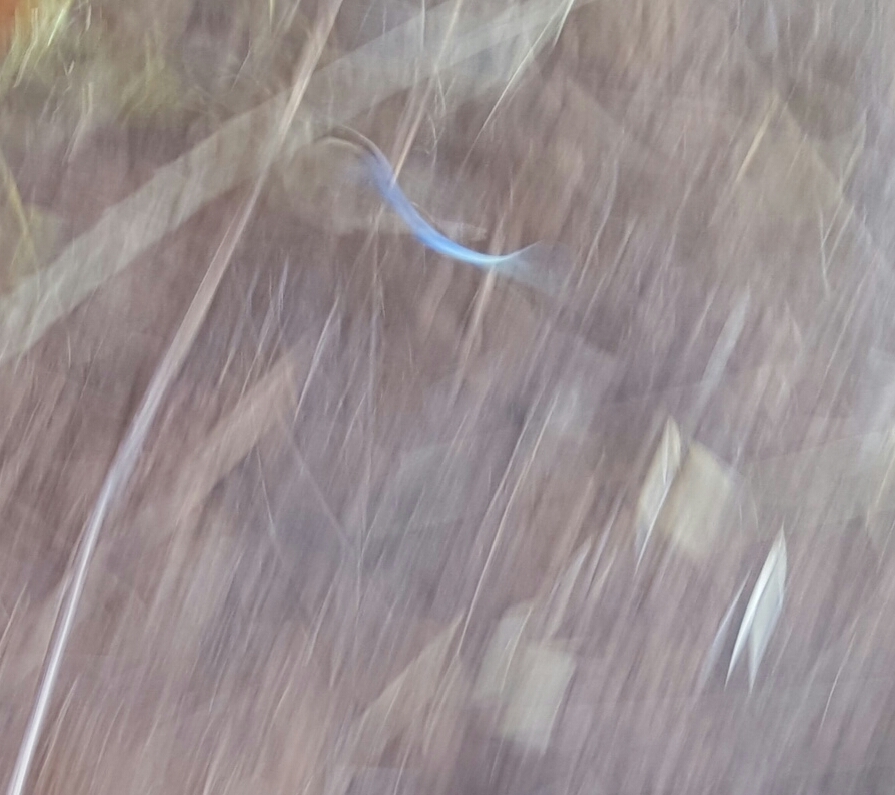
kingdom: Animalia
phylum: Chordata
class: Squamata
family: Scincidae
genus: Plestiodon
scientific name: Plestiodon skiltonianus
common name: Coronado island skink [interparietalis]
